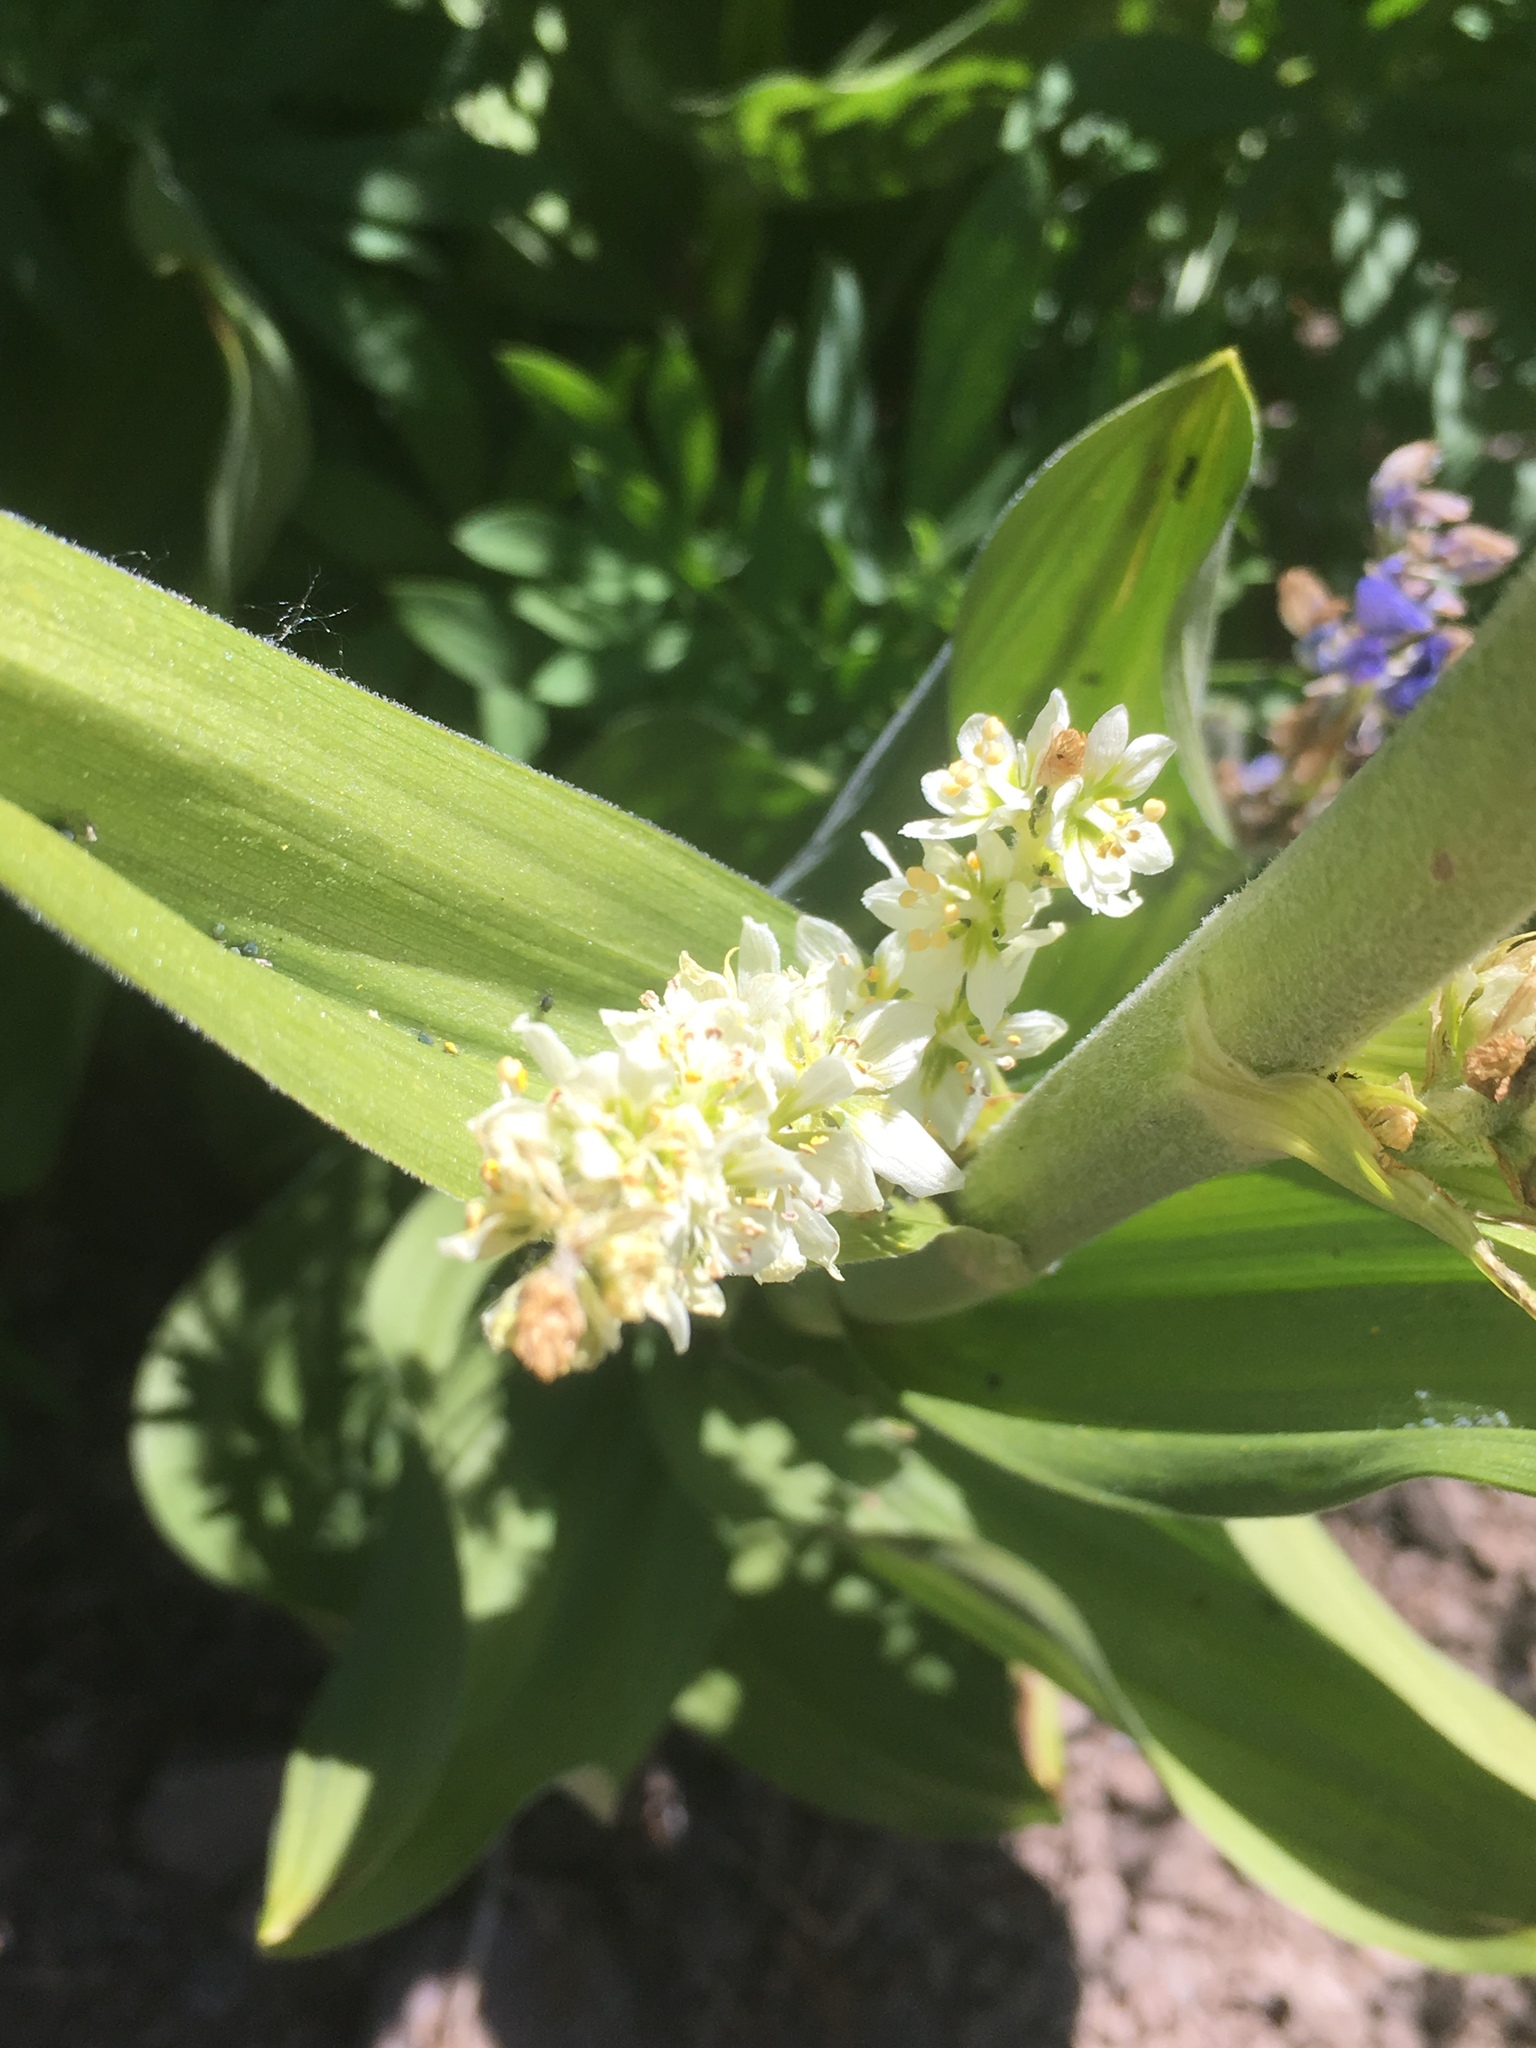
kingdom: Plantae
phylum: Tracheophyta
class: Liliopsida
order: Liliales
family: Melanthiaceae
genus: Veratrum
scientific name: Veratrum californicum
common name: California veratrum
